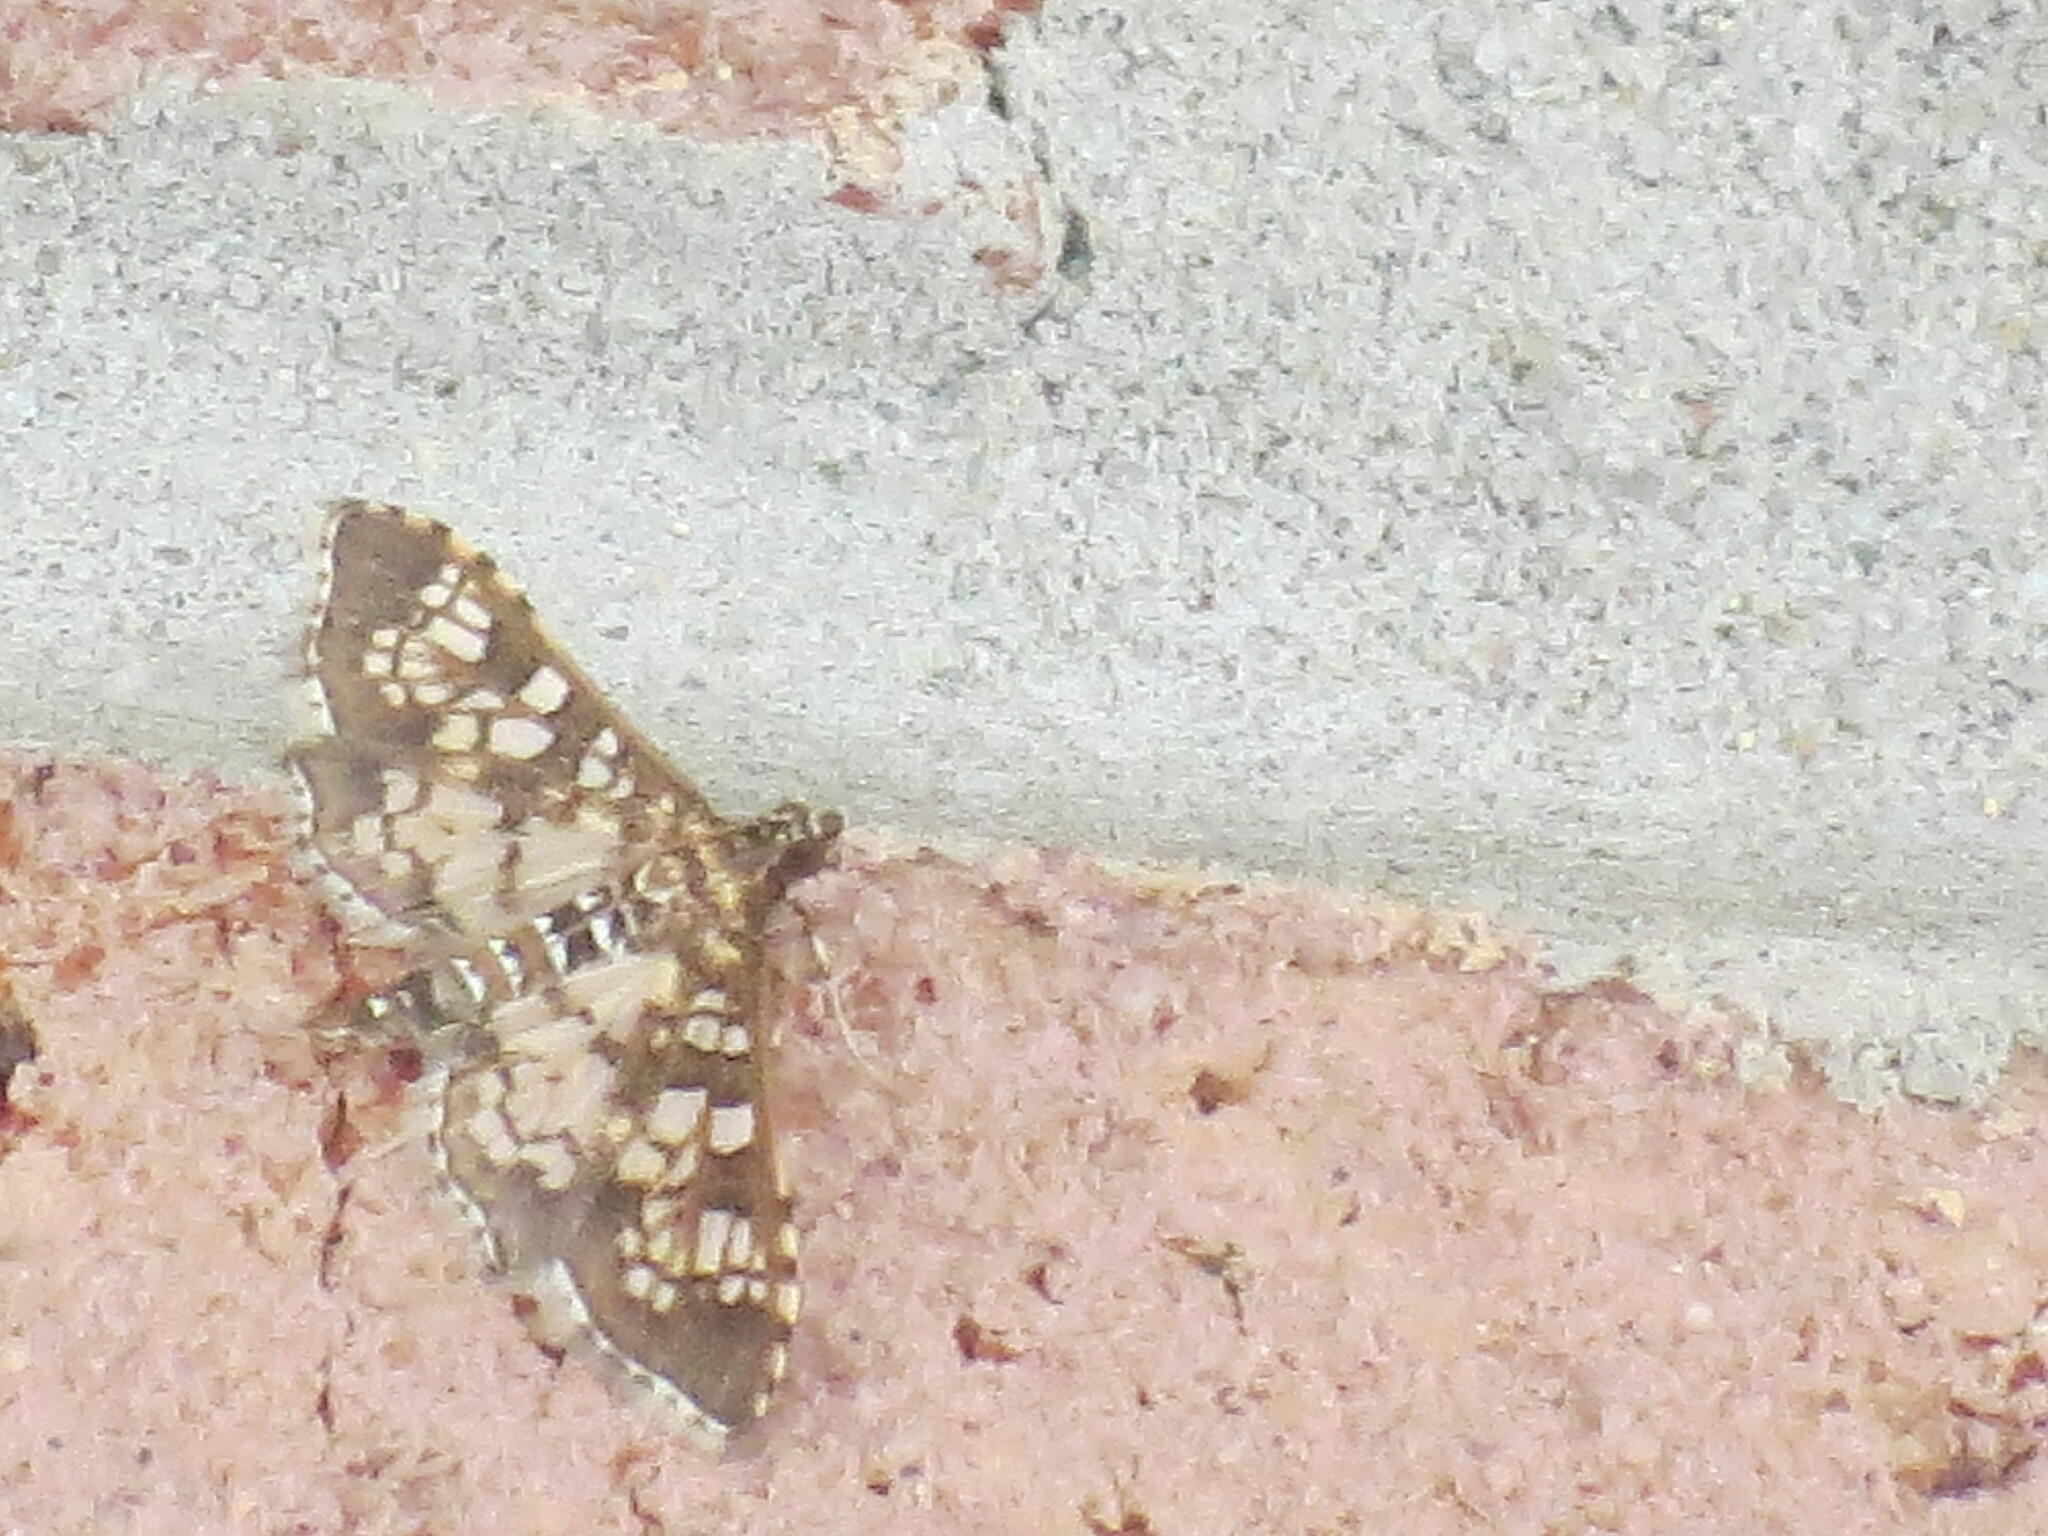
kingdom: Animalia
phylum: Arthropoda
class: Insecta
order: Lepidoptera
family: Crambidae
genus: Samea
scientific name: Samea ecclesialis
